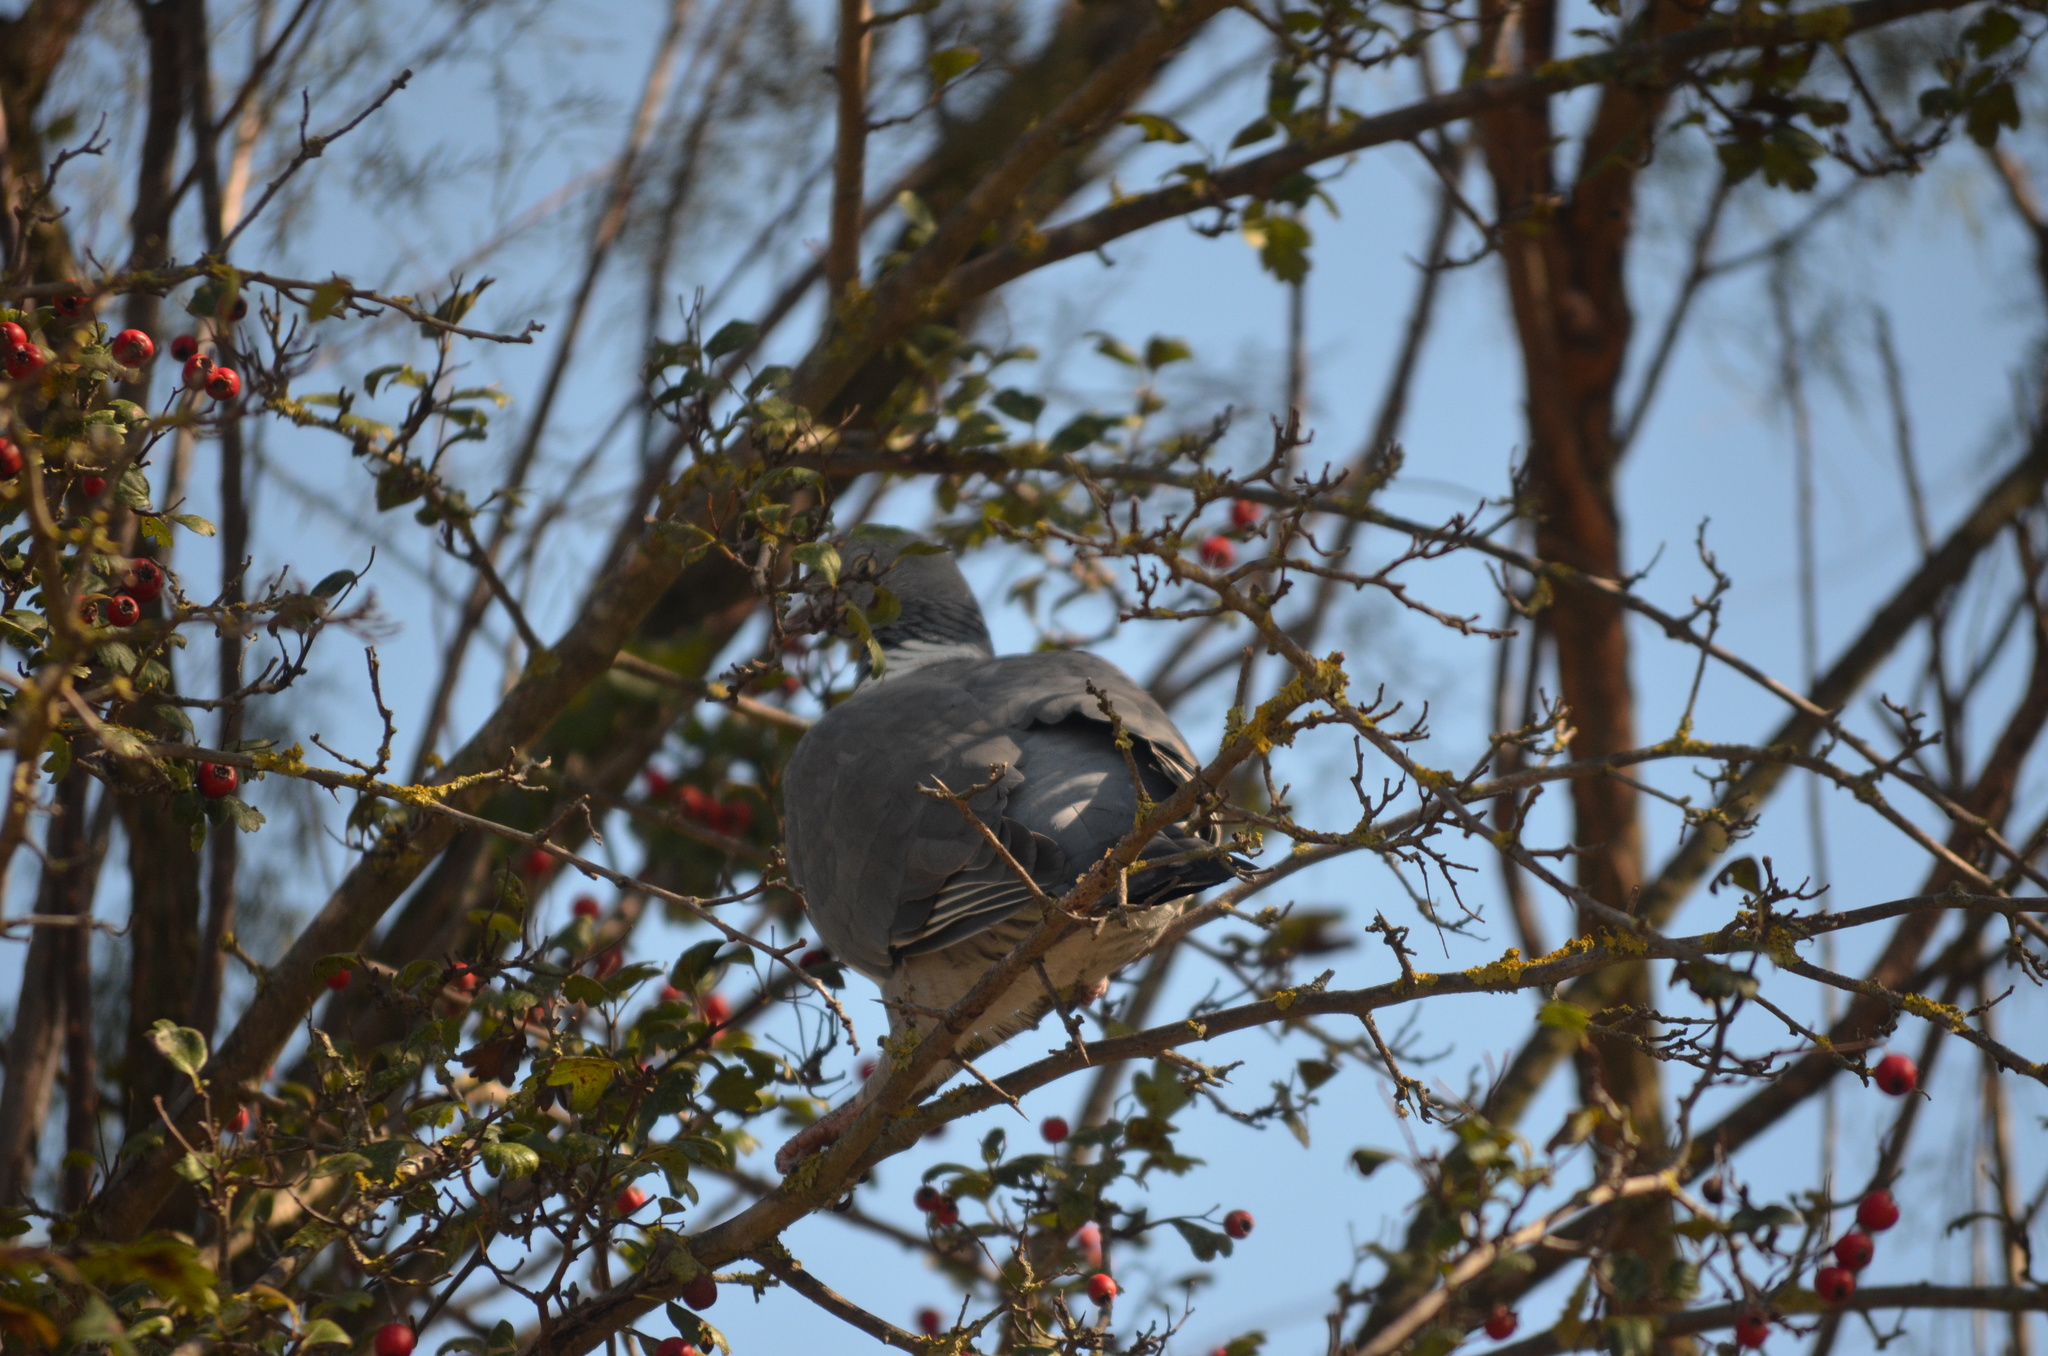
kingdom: Animalia
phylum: Chordata
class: Aves
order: Columbiformes
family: Columbidae
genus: Columba
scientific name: Columba palumbus
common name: Common wood pigeon
